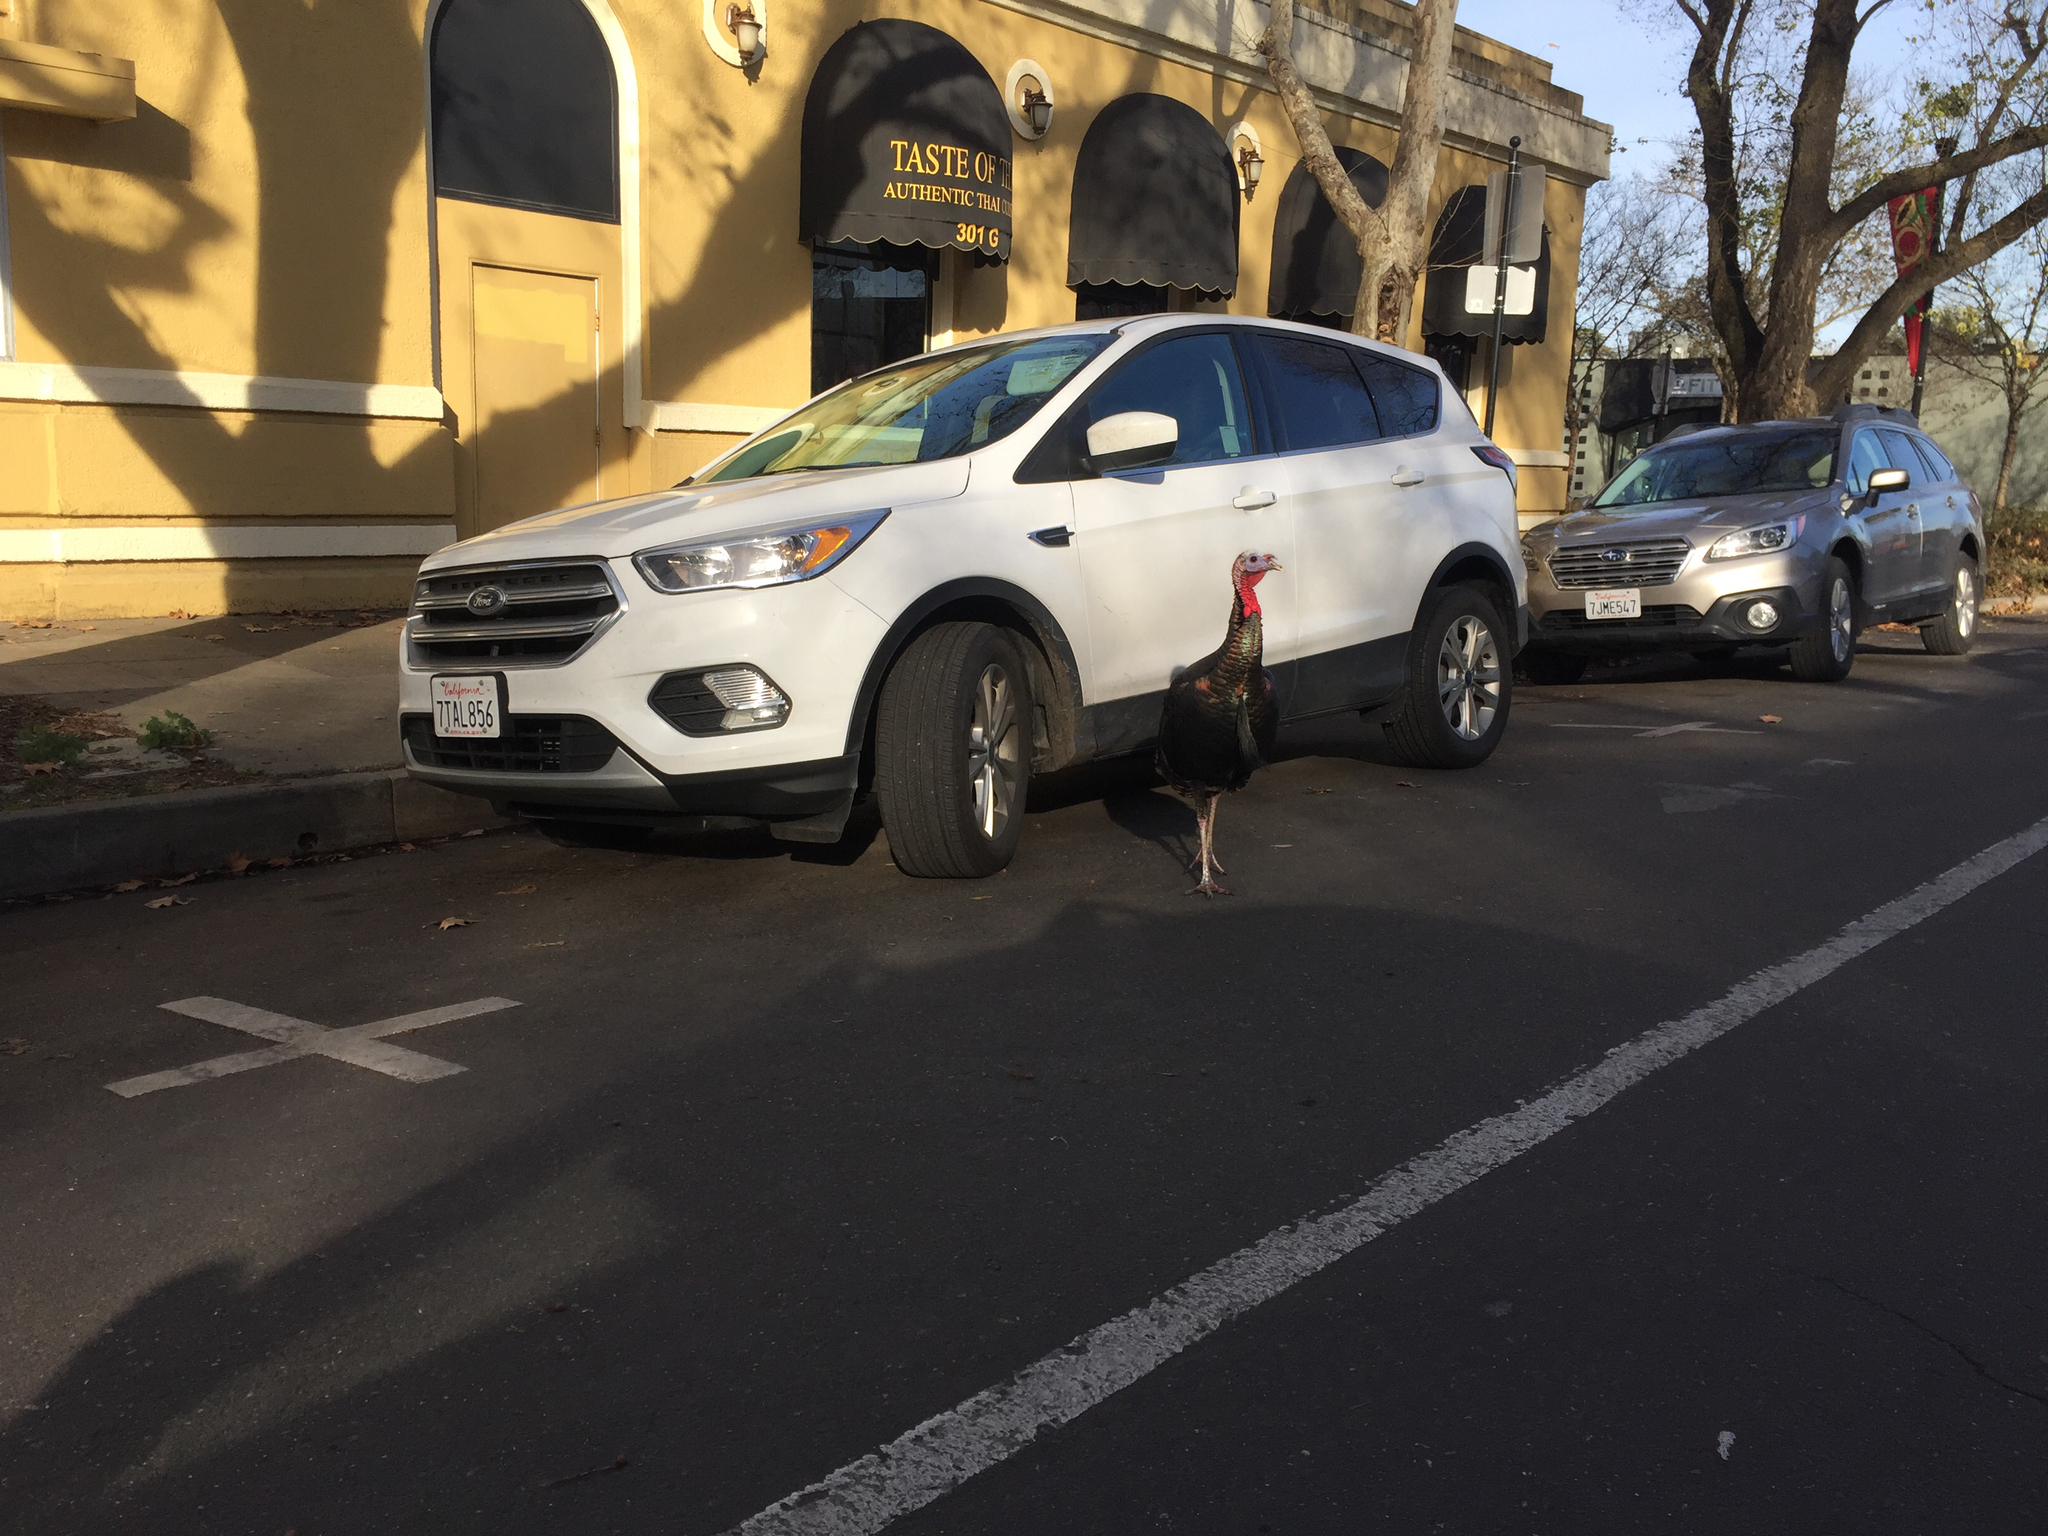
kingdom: Animalia
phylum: Chordata
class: Aves
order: Galliformes
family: Phasianidae
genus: Meleagris
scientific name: Meleagris gallopavo
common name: Wild turkey
